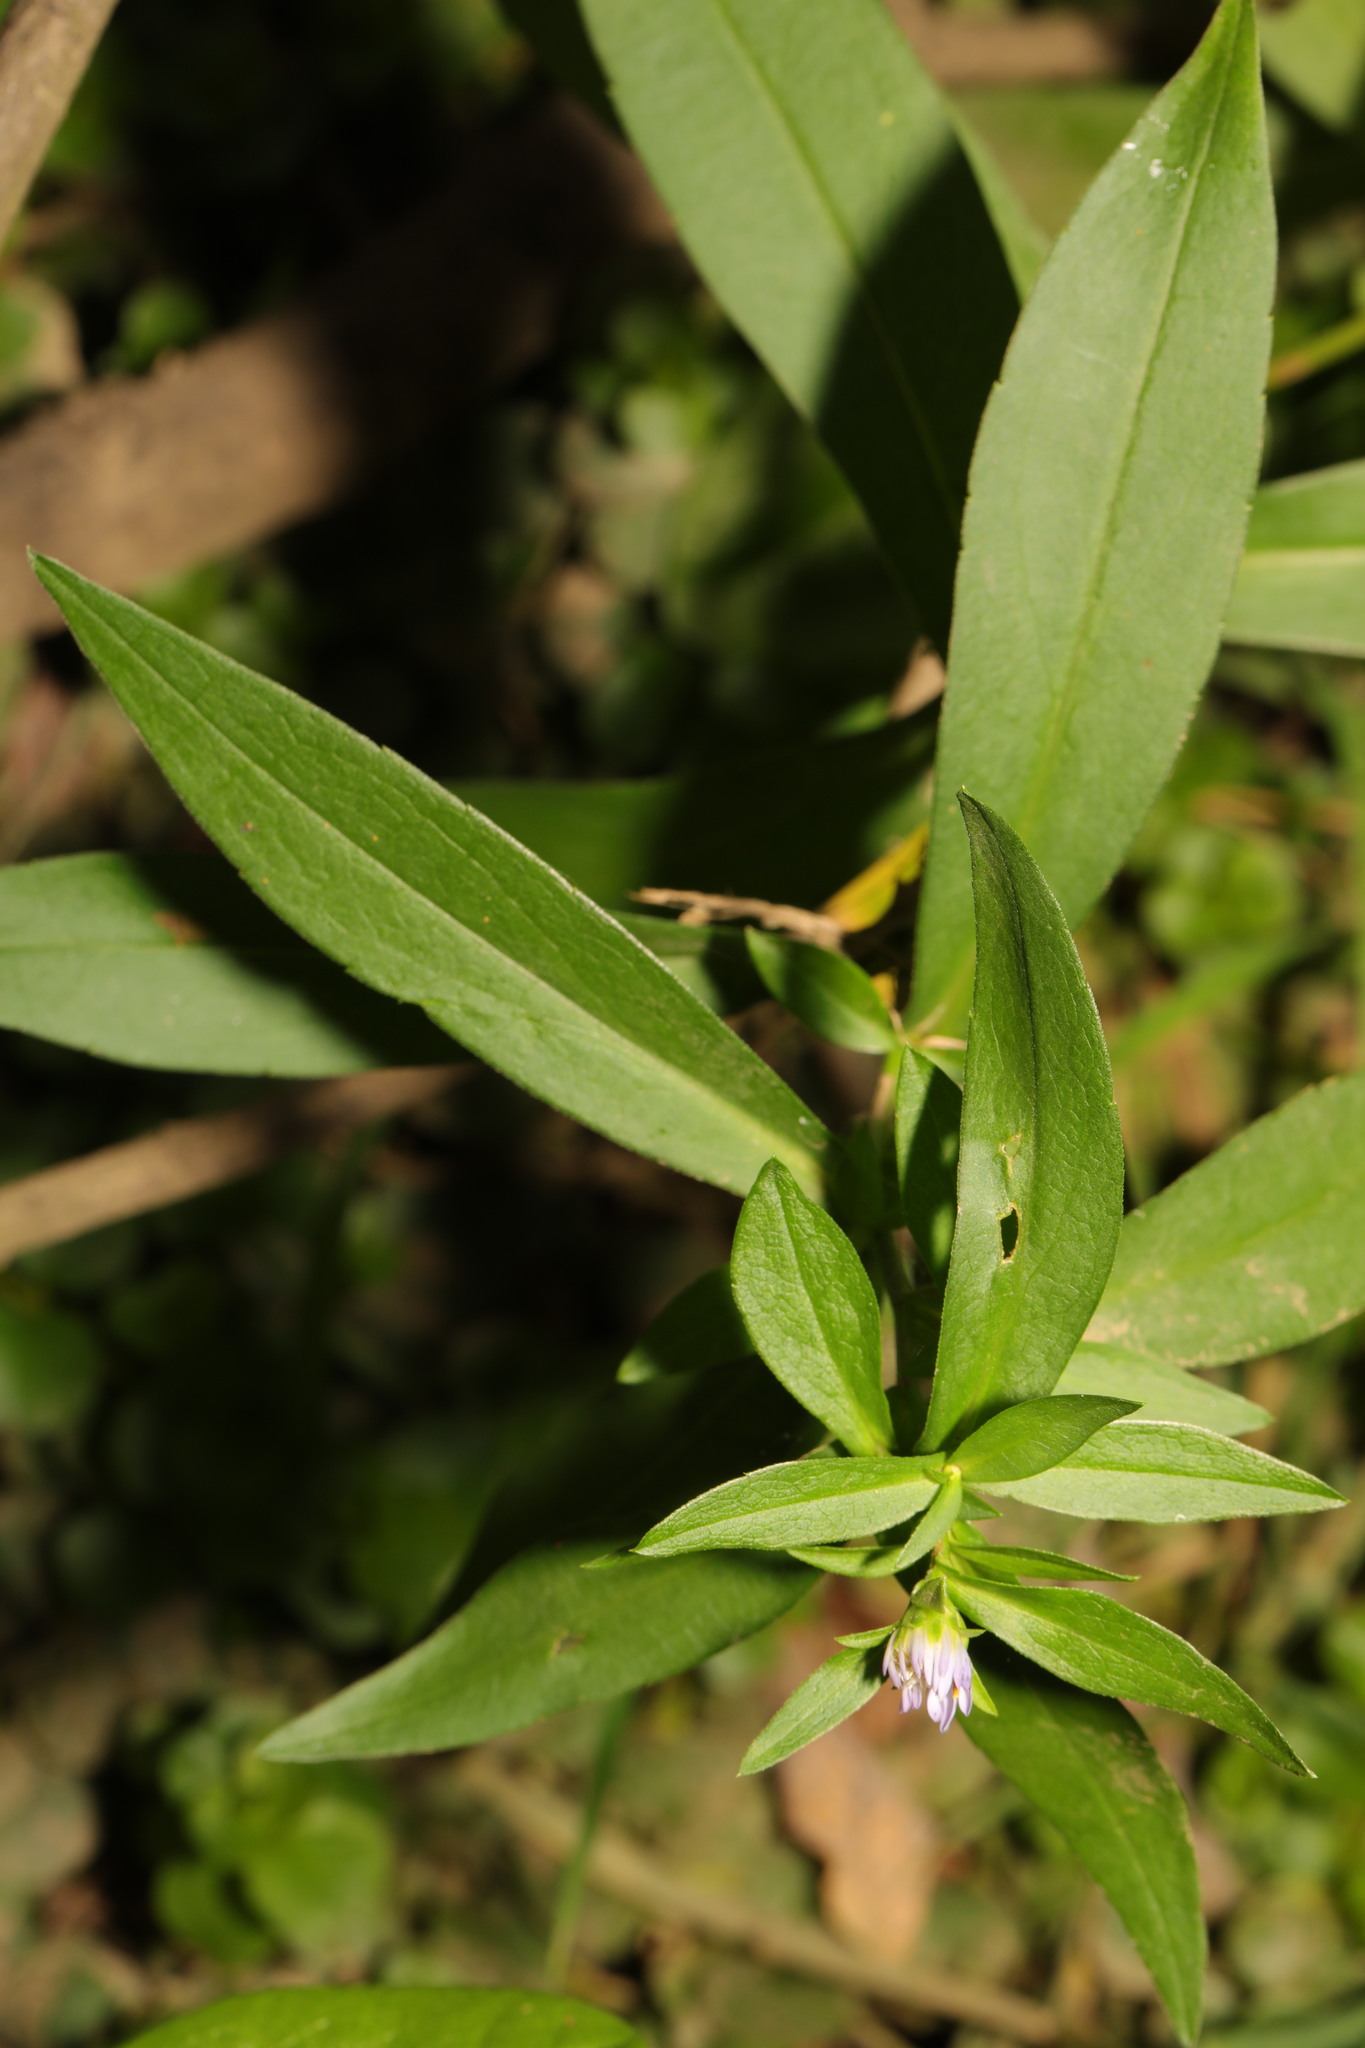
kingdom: Plantae
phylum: Tracheophyta
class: Magnoliopsida
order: Asterales
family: Asteraceae
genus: Symphyotrichum
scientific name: Symphyotrichum
